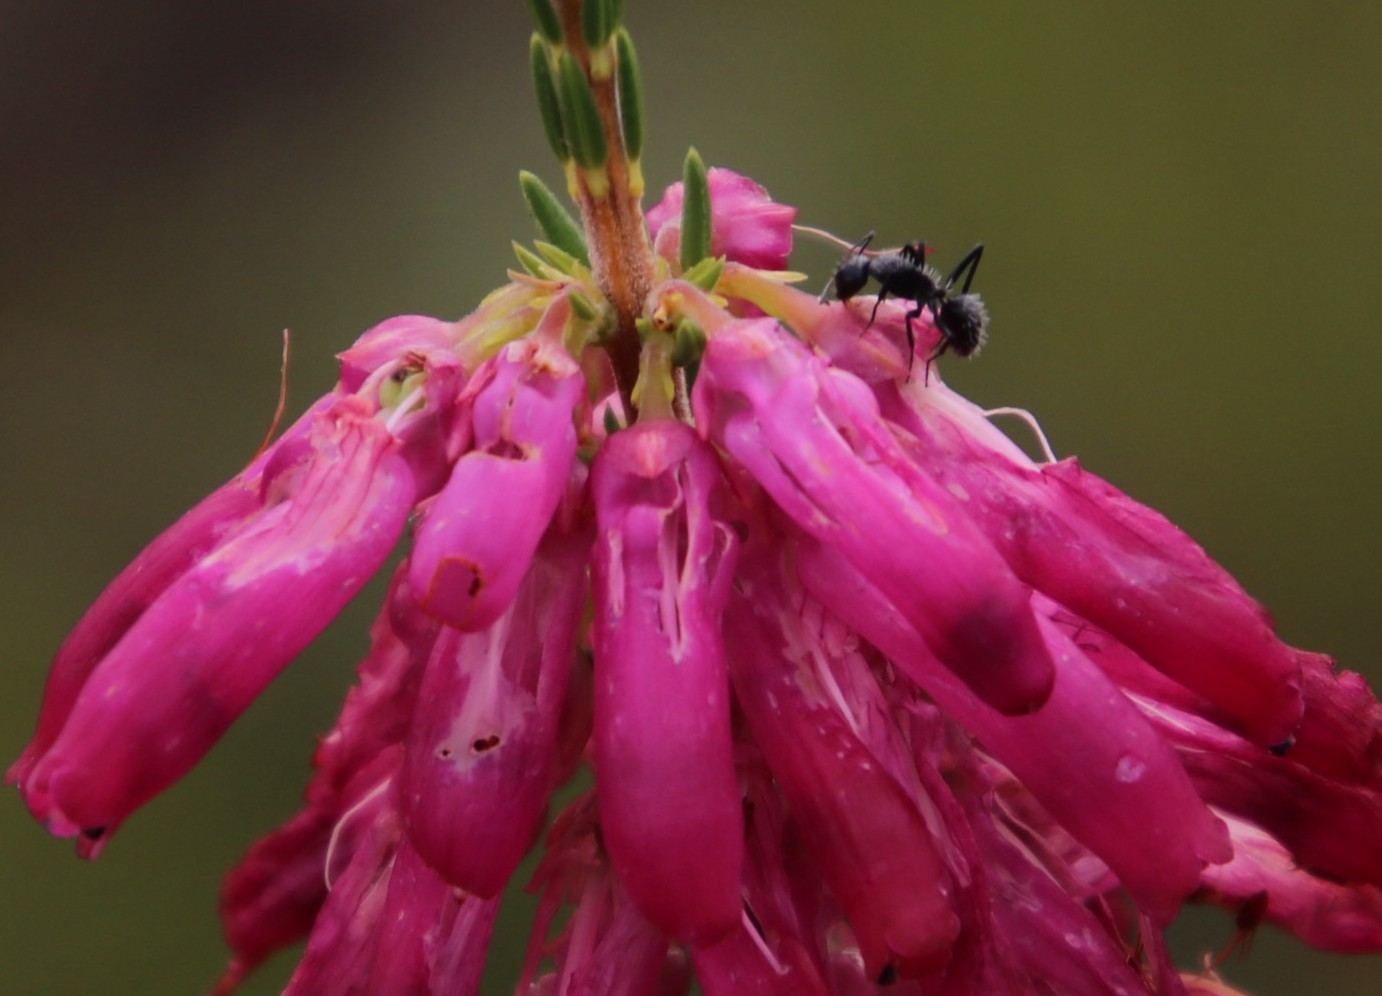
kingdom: Animalia
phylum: Arthropoda
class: Insecta
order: Hymenoptera
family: Formicidae
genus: Camponotus
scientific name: Camponotus niveosetosus
